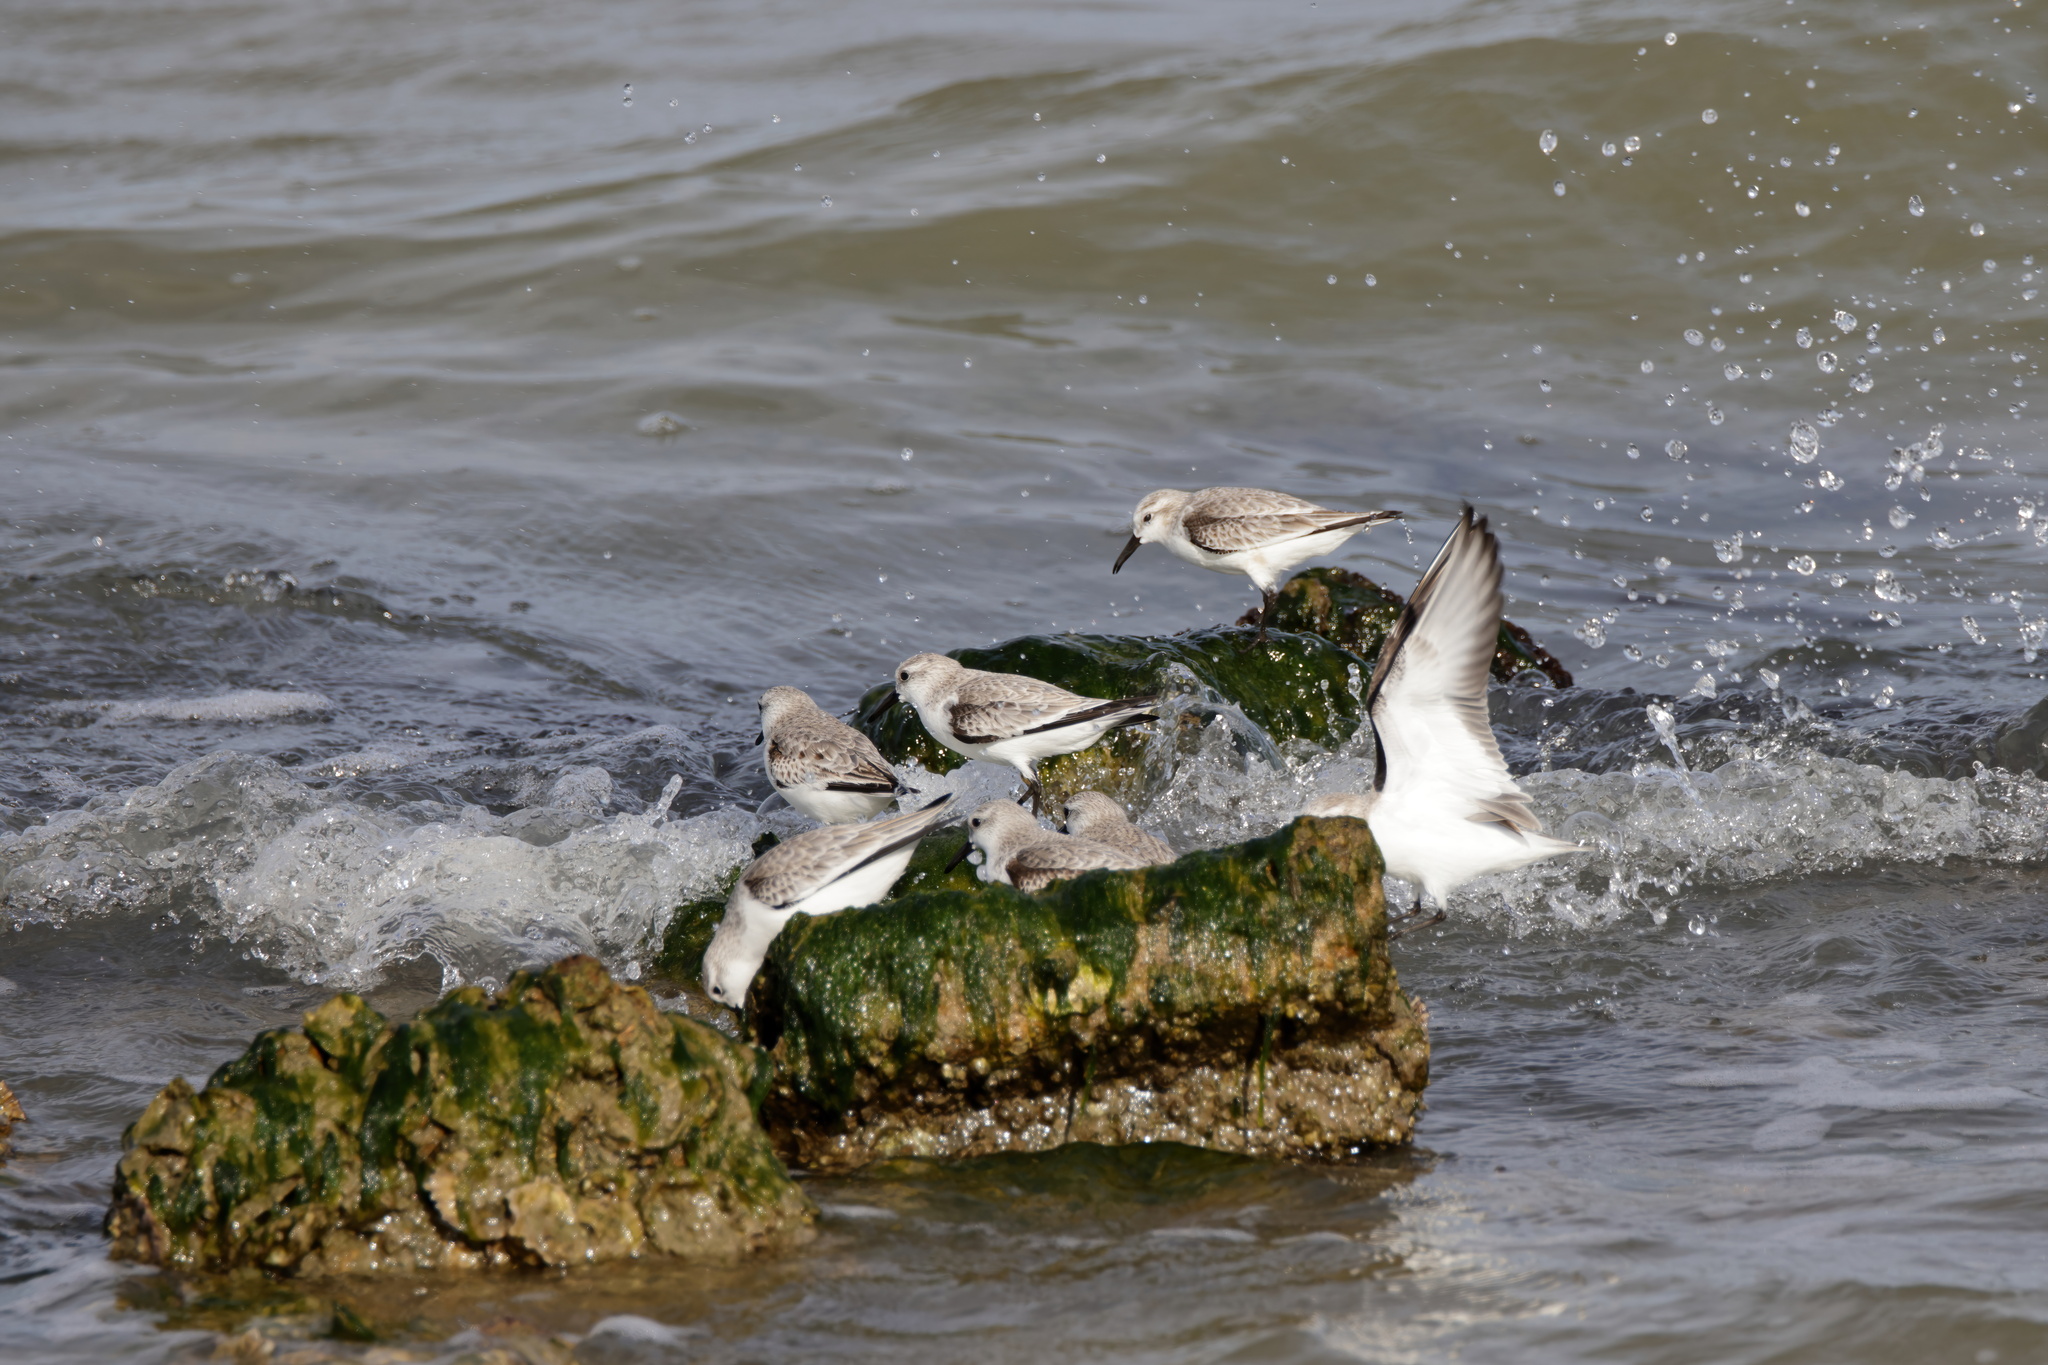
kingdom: Animalia
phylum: Chordata
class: Aves
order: Charadriiformes
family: Scolopacidae
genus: Calidris
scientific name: Calidris alba
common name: Sanderling
